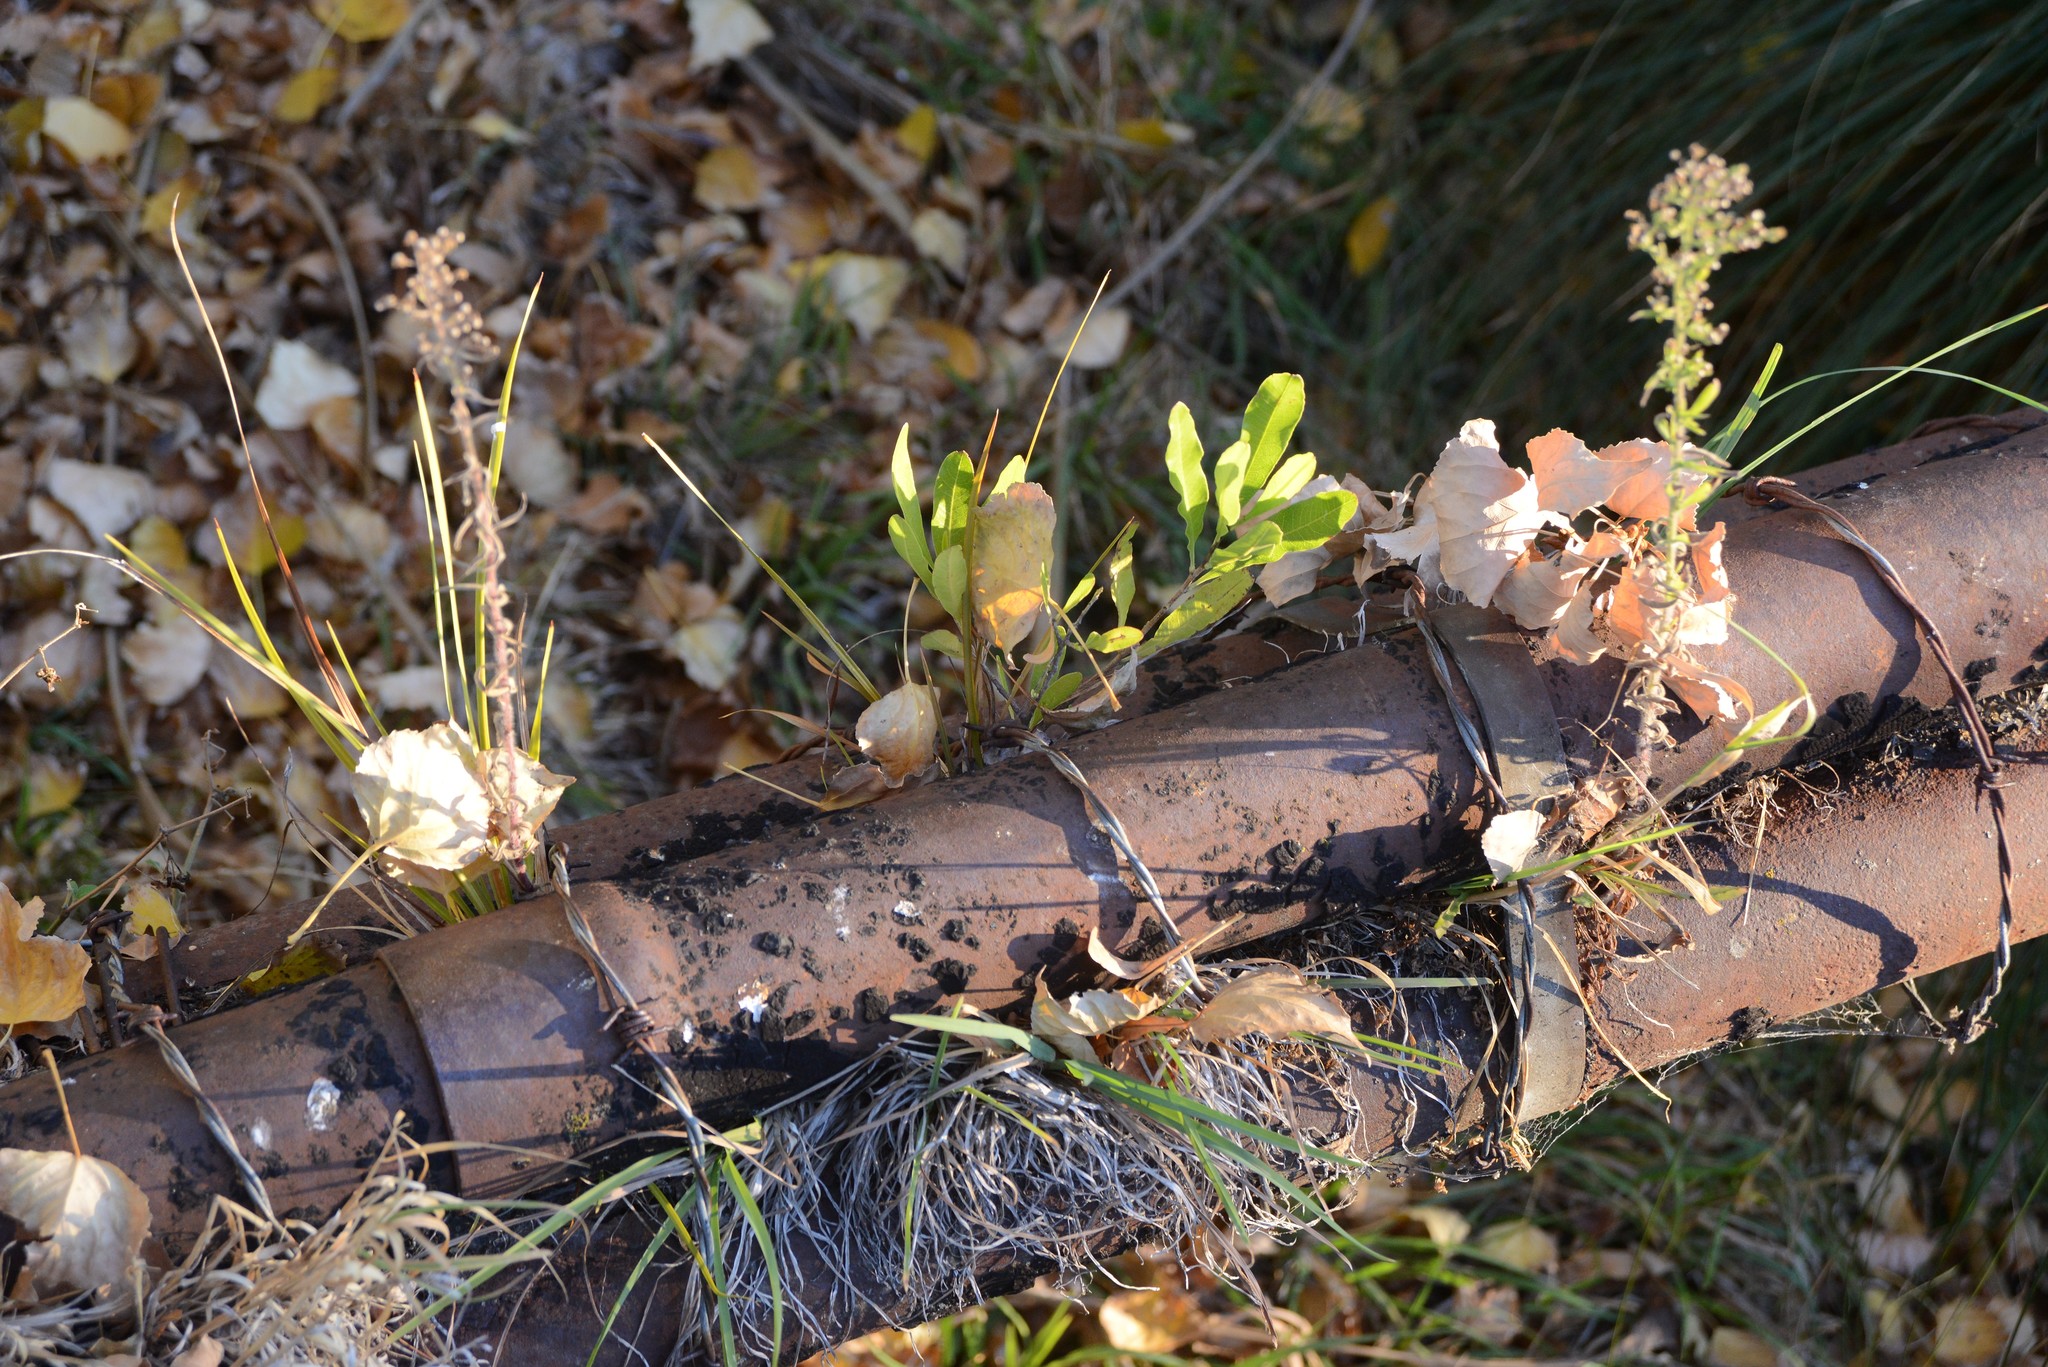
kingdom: Plantae
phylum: Tracheophyta
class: Magnoliopsida
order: Sapindales
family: Sapindaceae
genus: Dodonaea
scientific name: Dodonaea viscosa
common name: Hopbush
